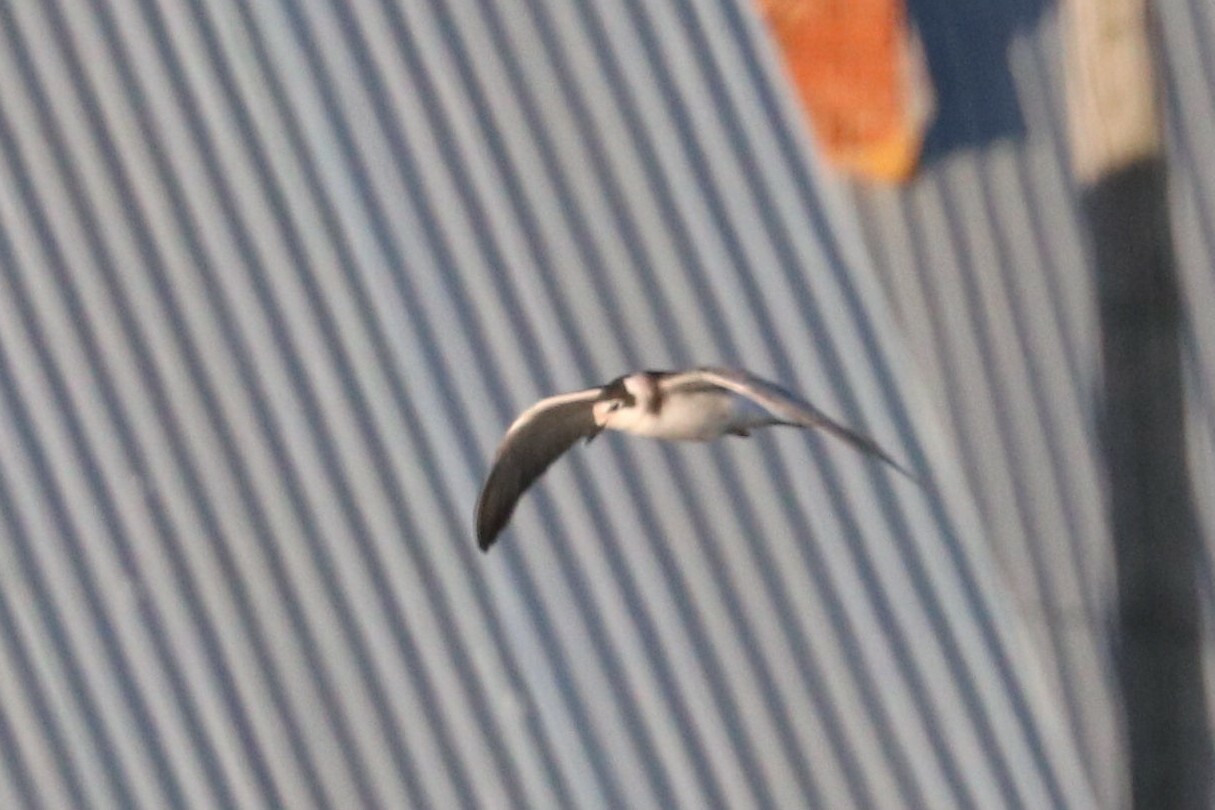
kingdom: Animalia
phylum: Chordata
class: Aves
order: Charadriiformes
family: Laridae
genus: Chlidonias
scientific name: Chlidonias niger
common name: Black tern
